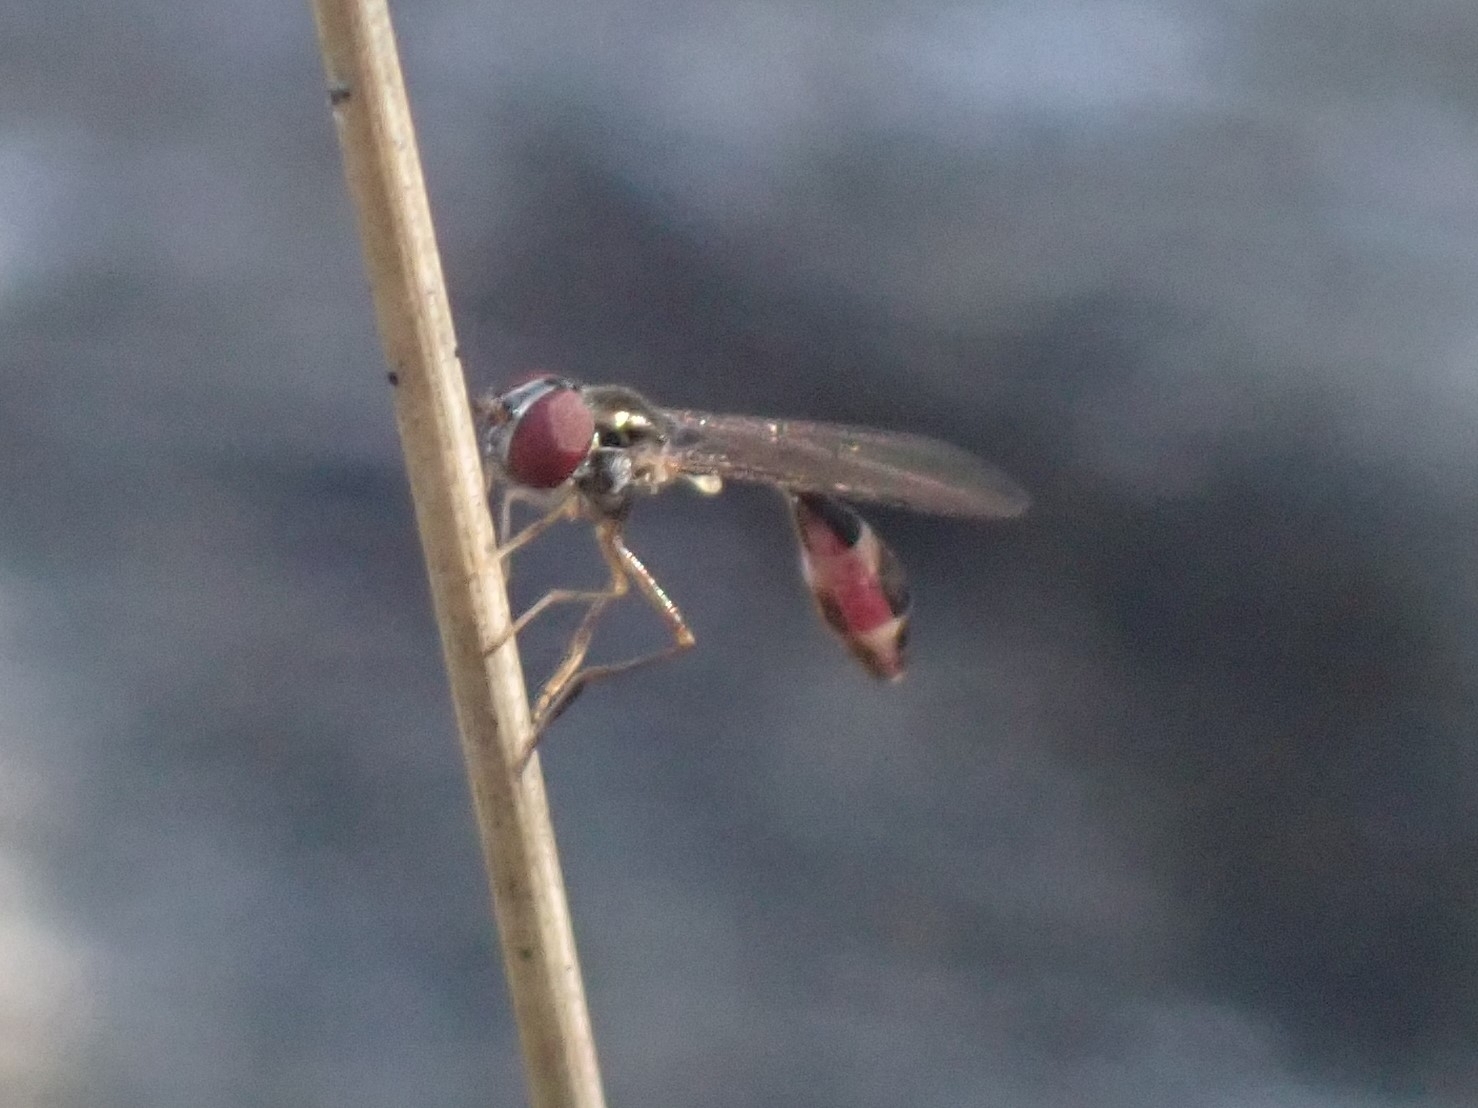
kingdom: Animalia
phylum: Arthropoda
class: Insecta
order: Diptera
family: Syrphidae
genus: Baccha
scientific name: Baccha elongata
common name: Common dainty
